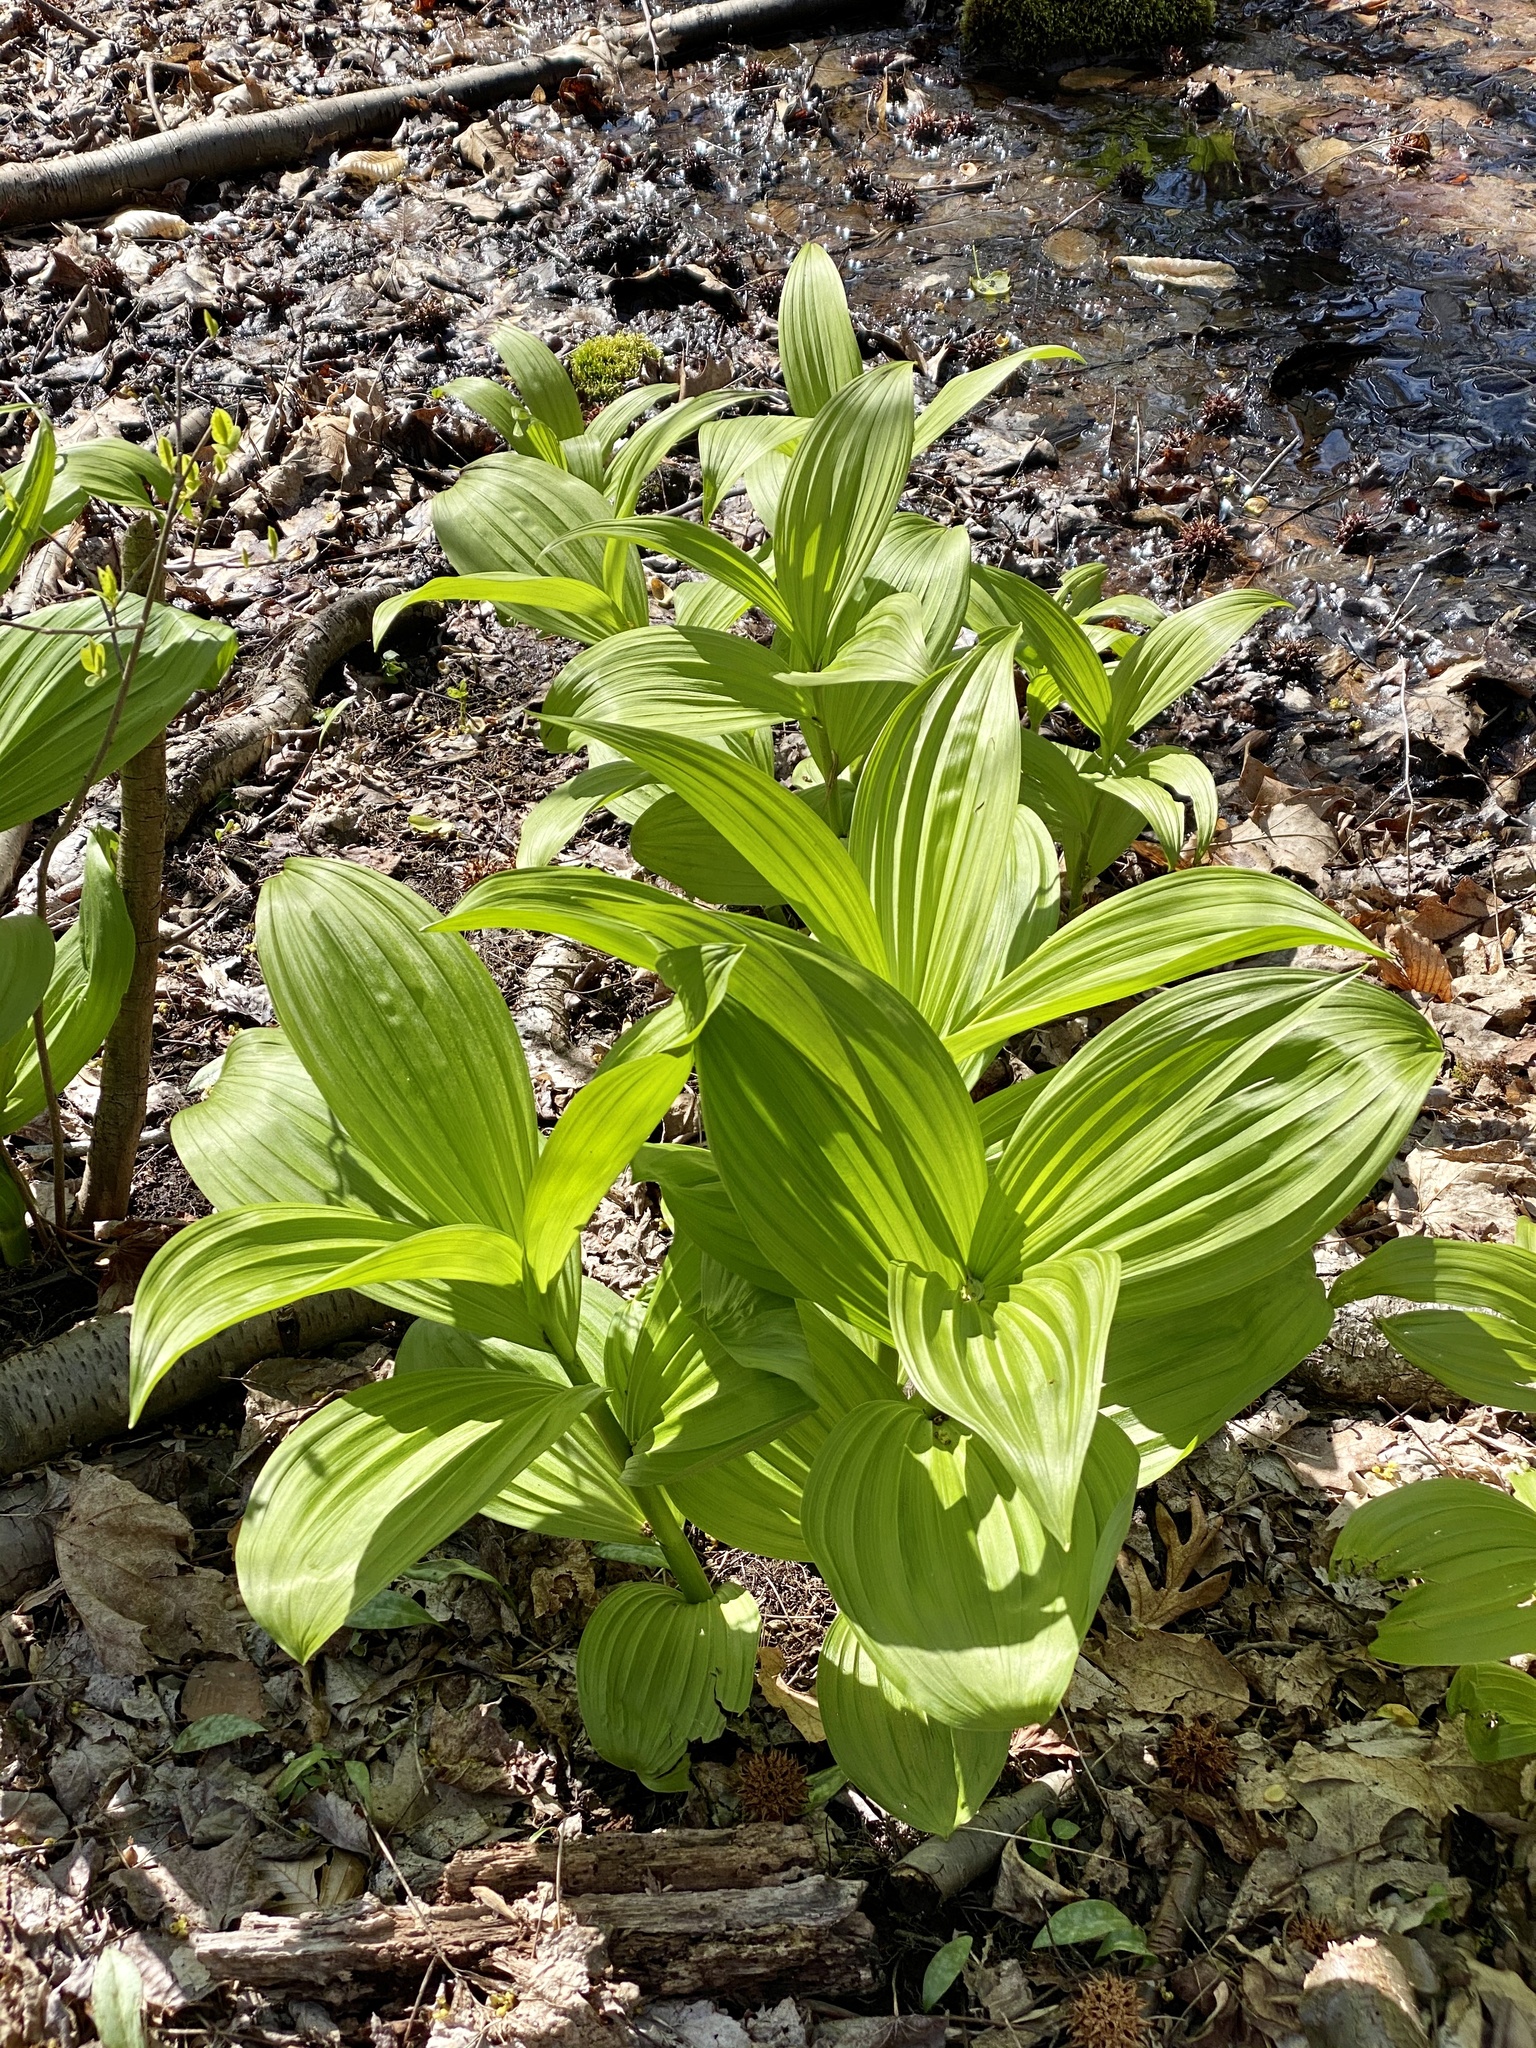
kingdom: Plantae
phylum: Tracheophyta
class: Liliopsida
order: Liliales
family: Melanthiaceae
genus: Veratrum
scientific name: Veratrum viride
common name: American false hellebore
